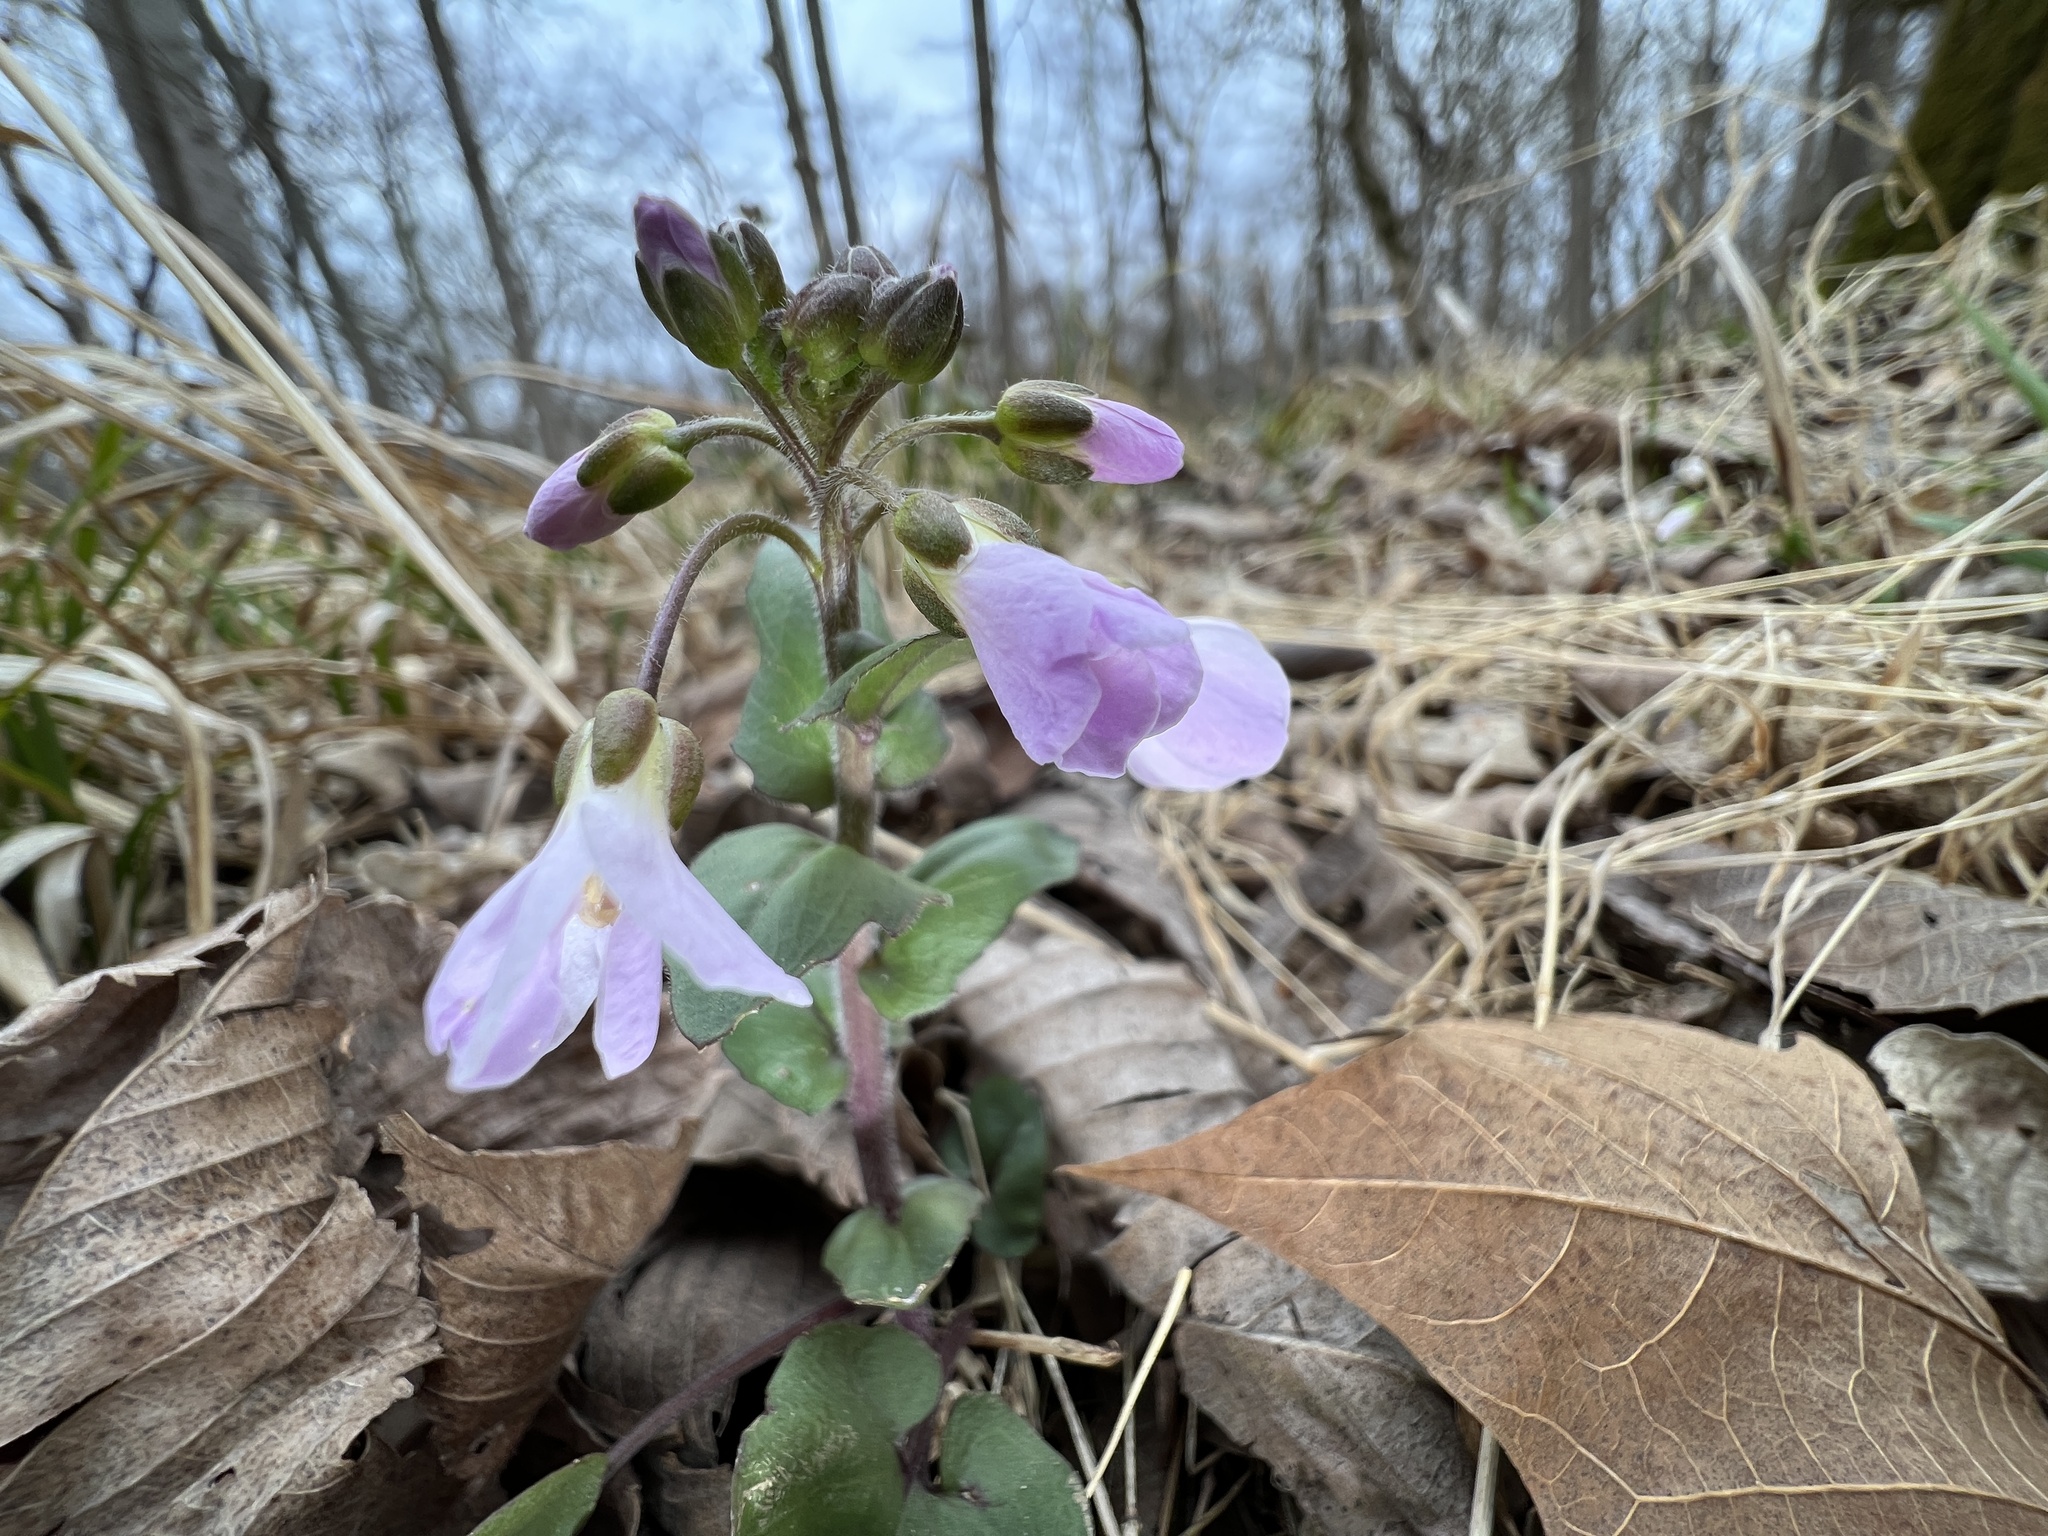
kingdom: Plantae
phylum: Tracheophyta
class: Magnoliopsida
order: Brassicales
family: Brassicaceae
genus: Cardamine
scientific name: Cardamine douglassii
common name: Purple cress
